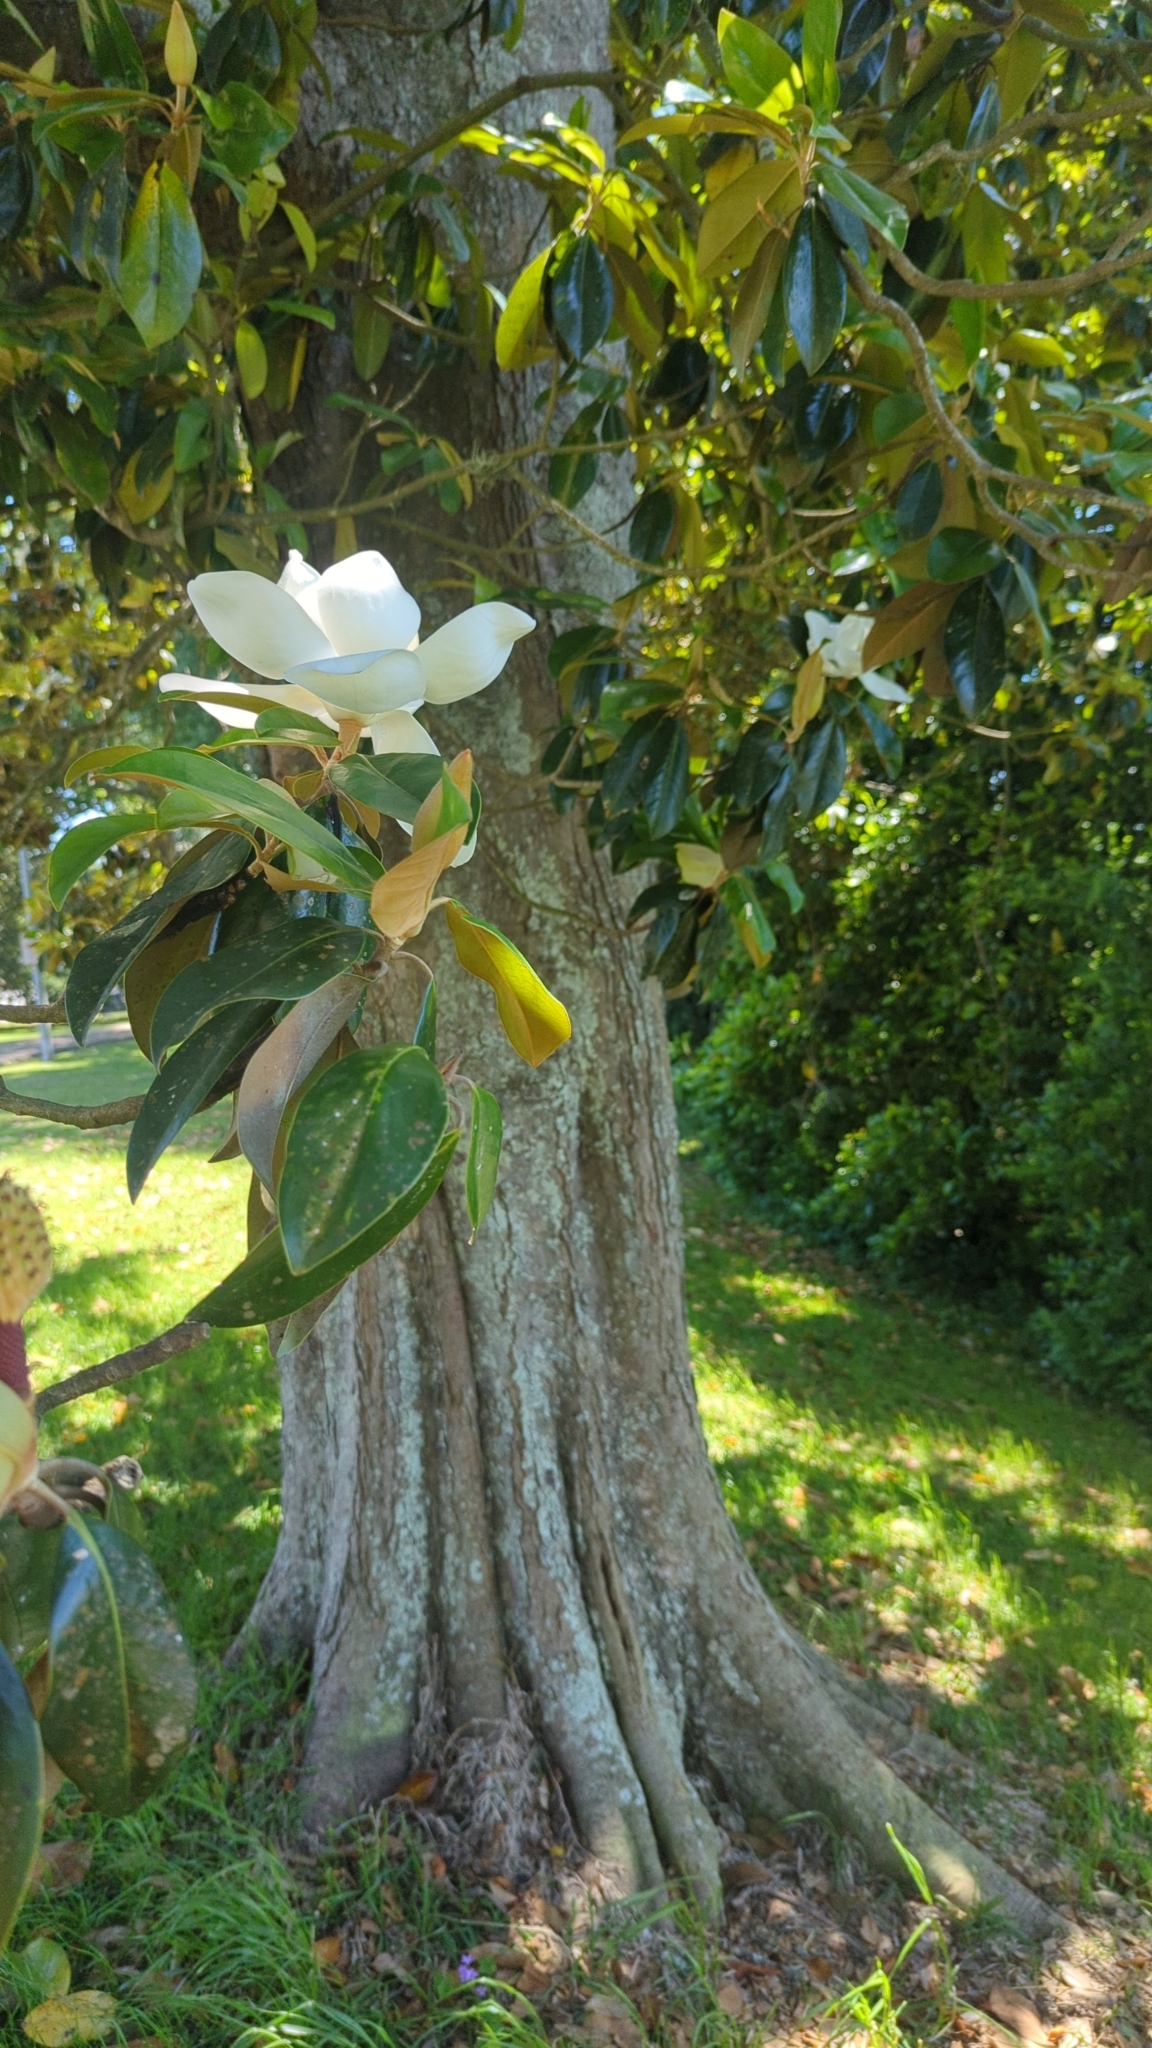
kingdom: Plantae
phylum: Tracheophyta
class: Magnoliopsida
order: Magnoliales
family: Magnoliaceae
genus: Magnolia
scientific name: Magnolia grandiflora
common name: Southern magnolia
